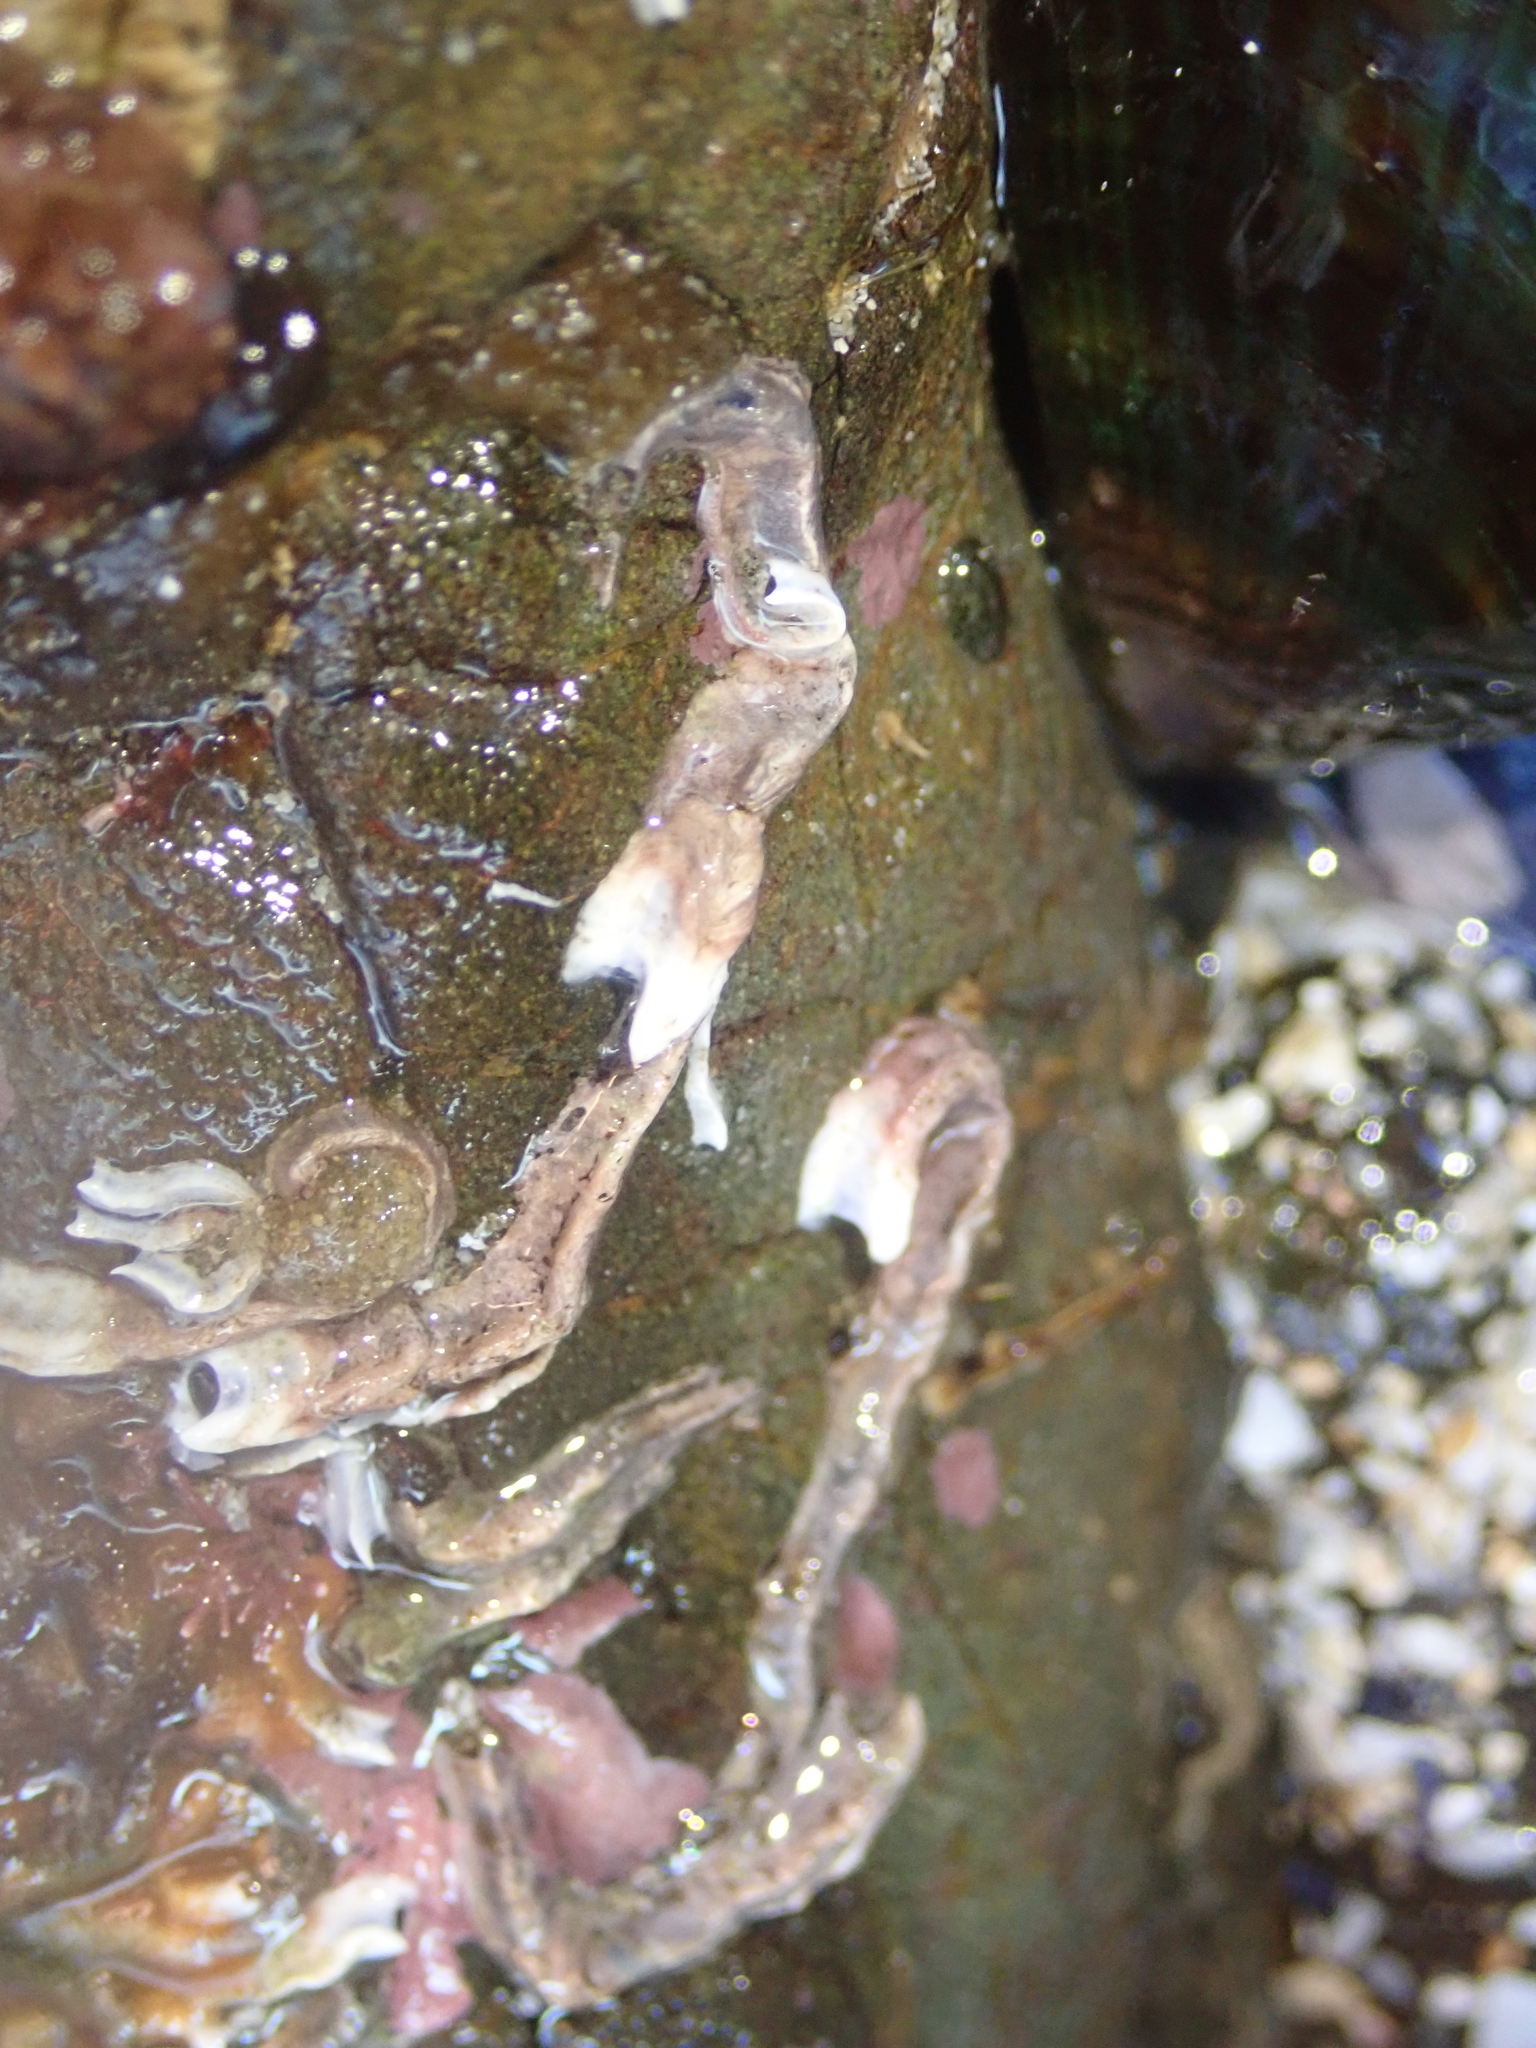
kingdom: Animalia
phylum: Annelida
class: Polychaeta
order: Sabellida
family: Serpulidae
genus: Spirobranchus
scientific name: Spirobranchus cariniferus
